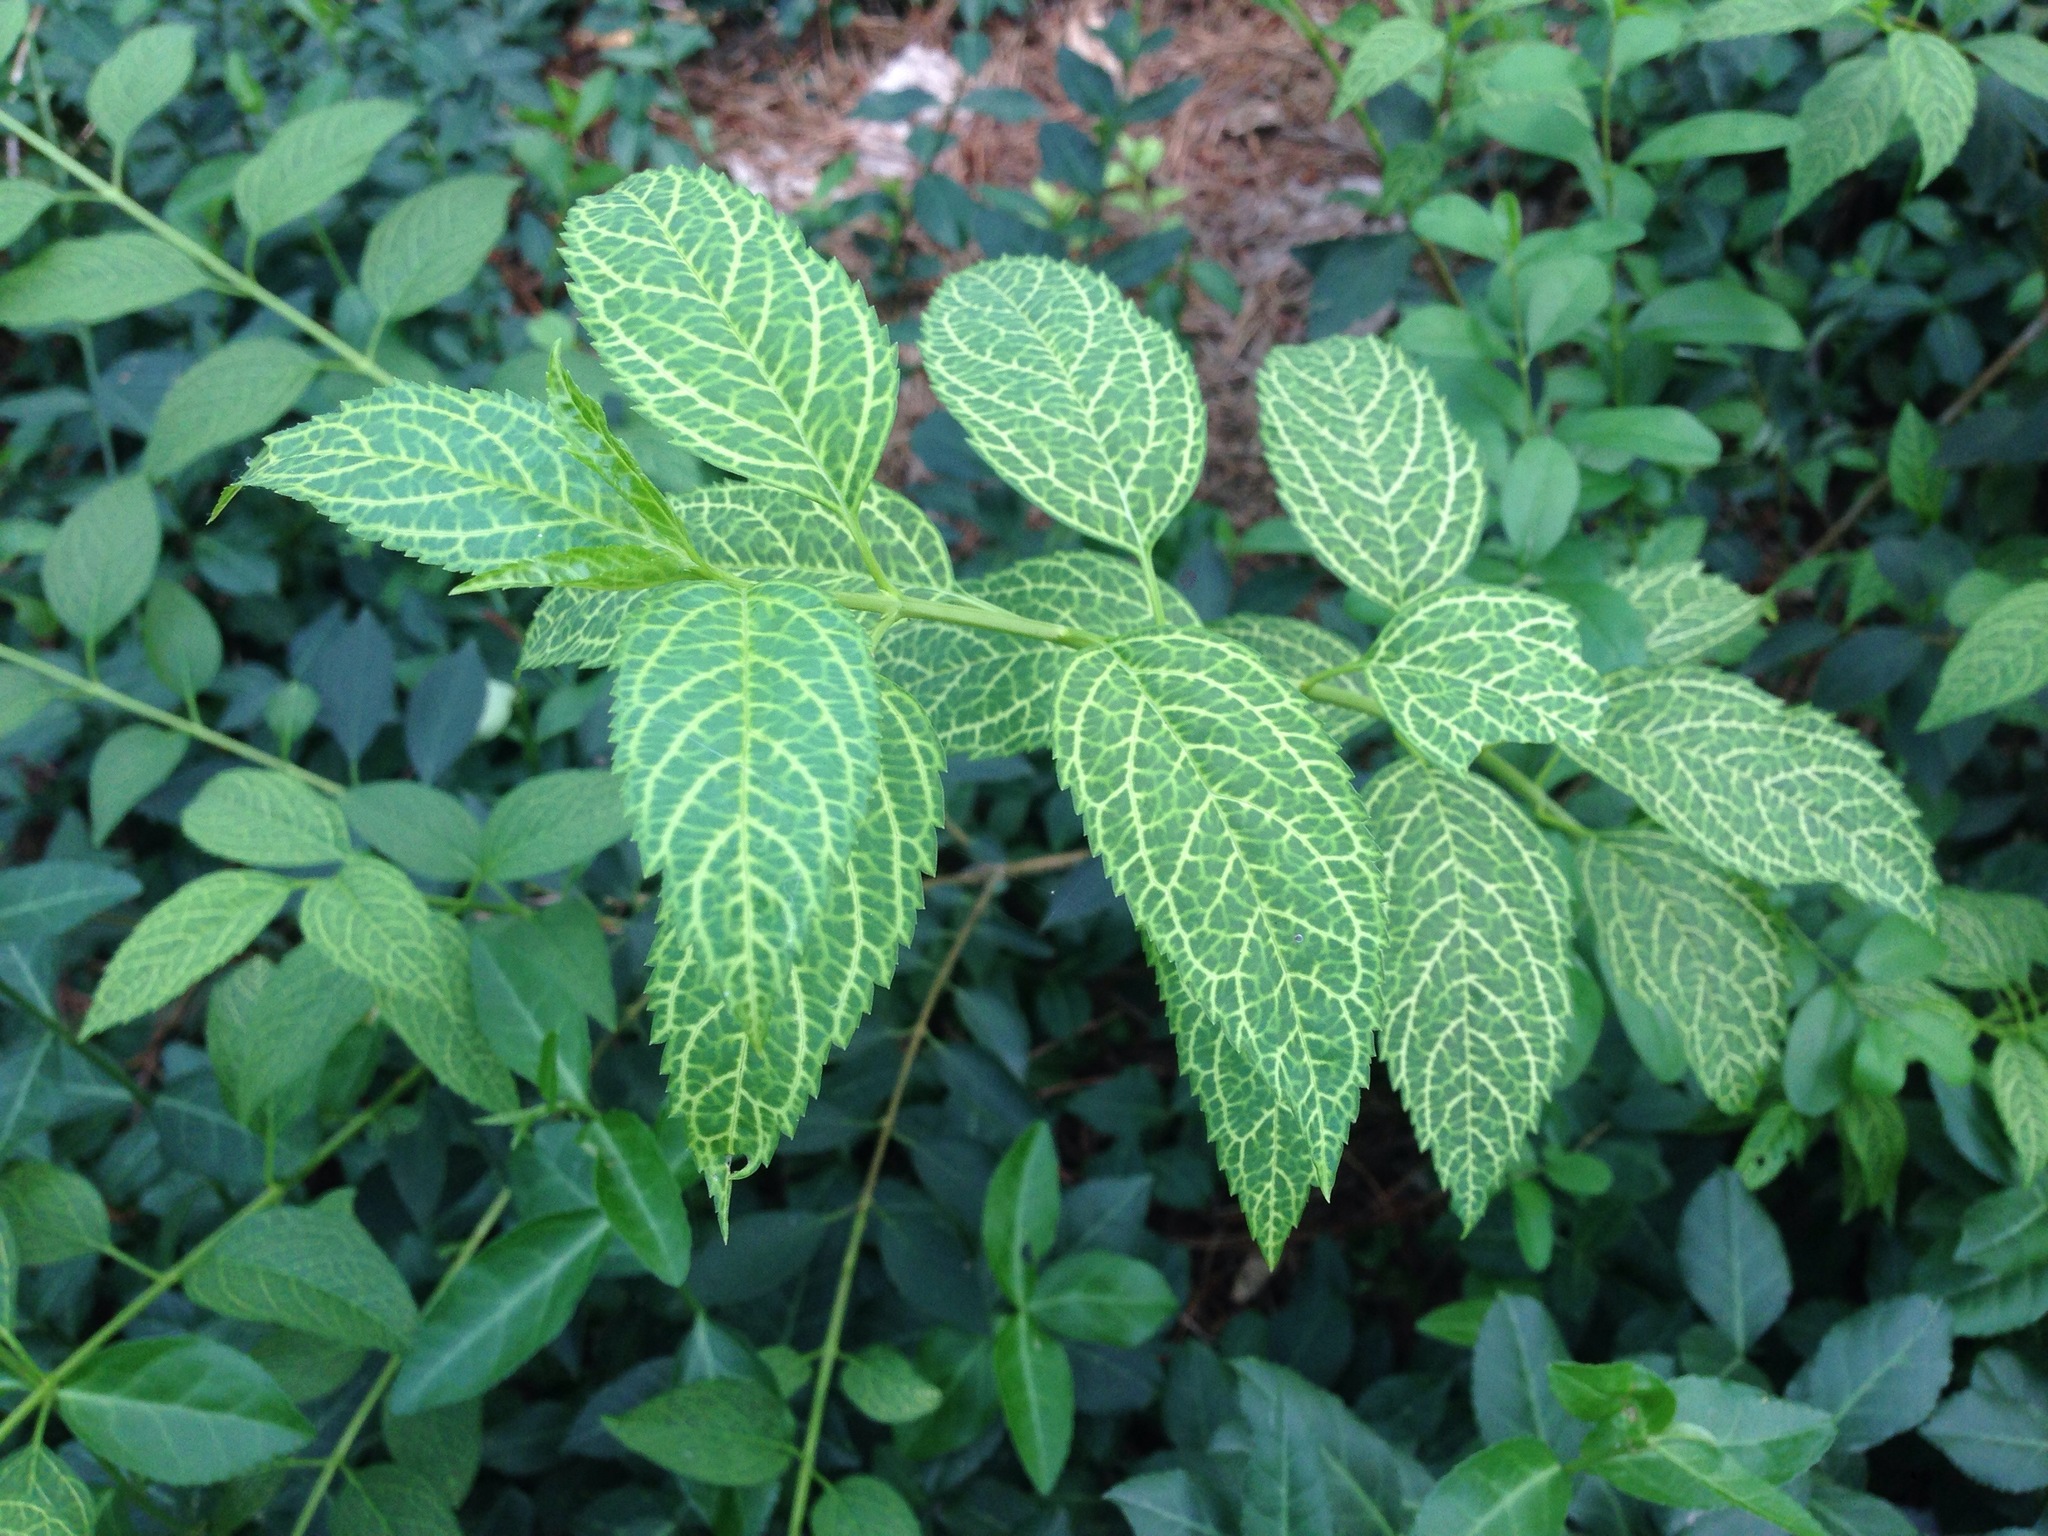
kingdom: Plantae
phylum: Tracheophyta
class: Magnoliopsida
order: Lamiales
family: Oleaceae
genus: Forsythia
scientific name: Forsythia koreana
